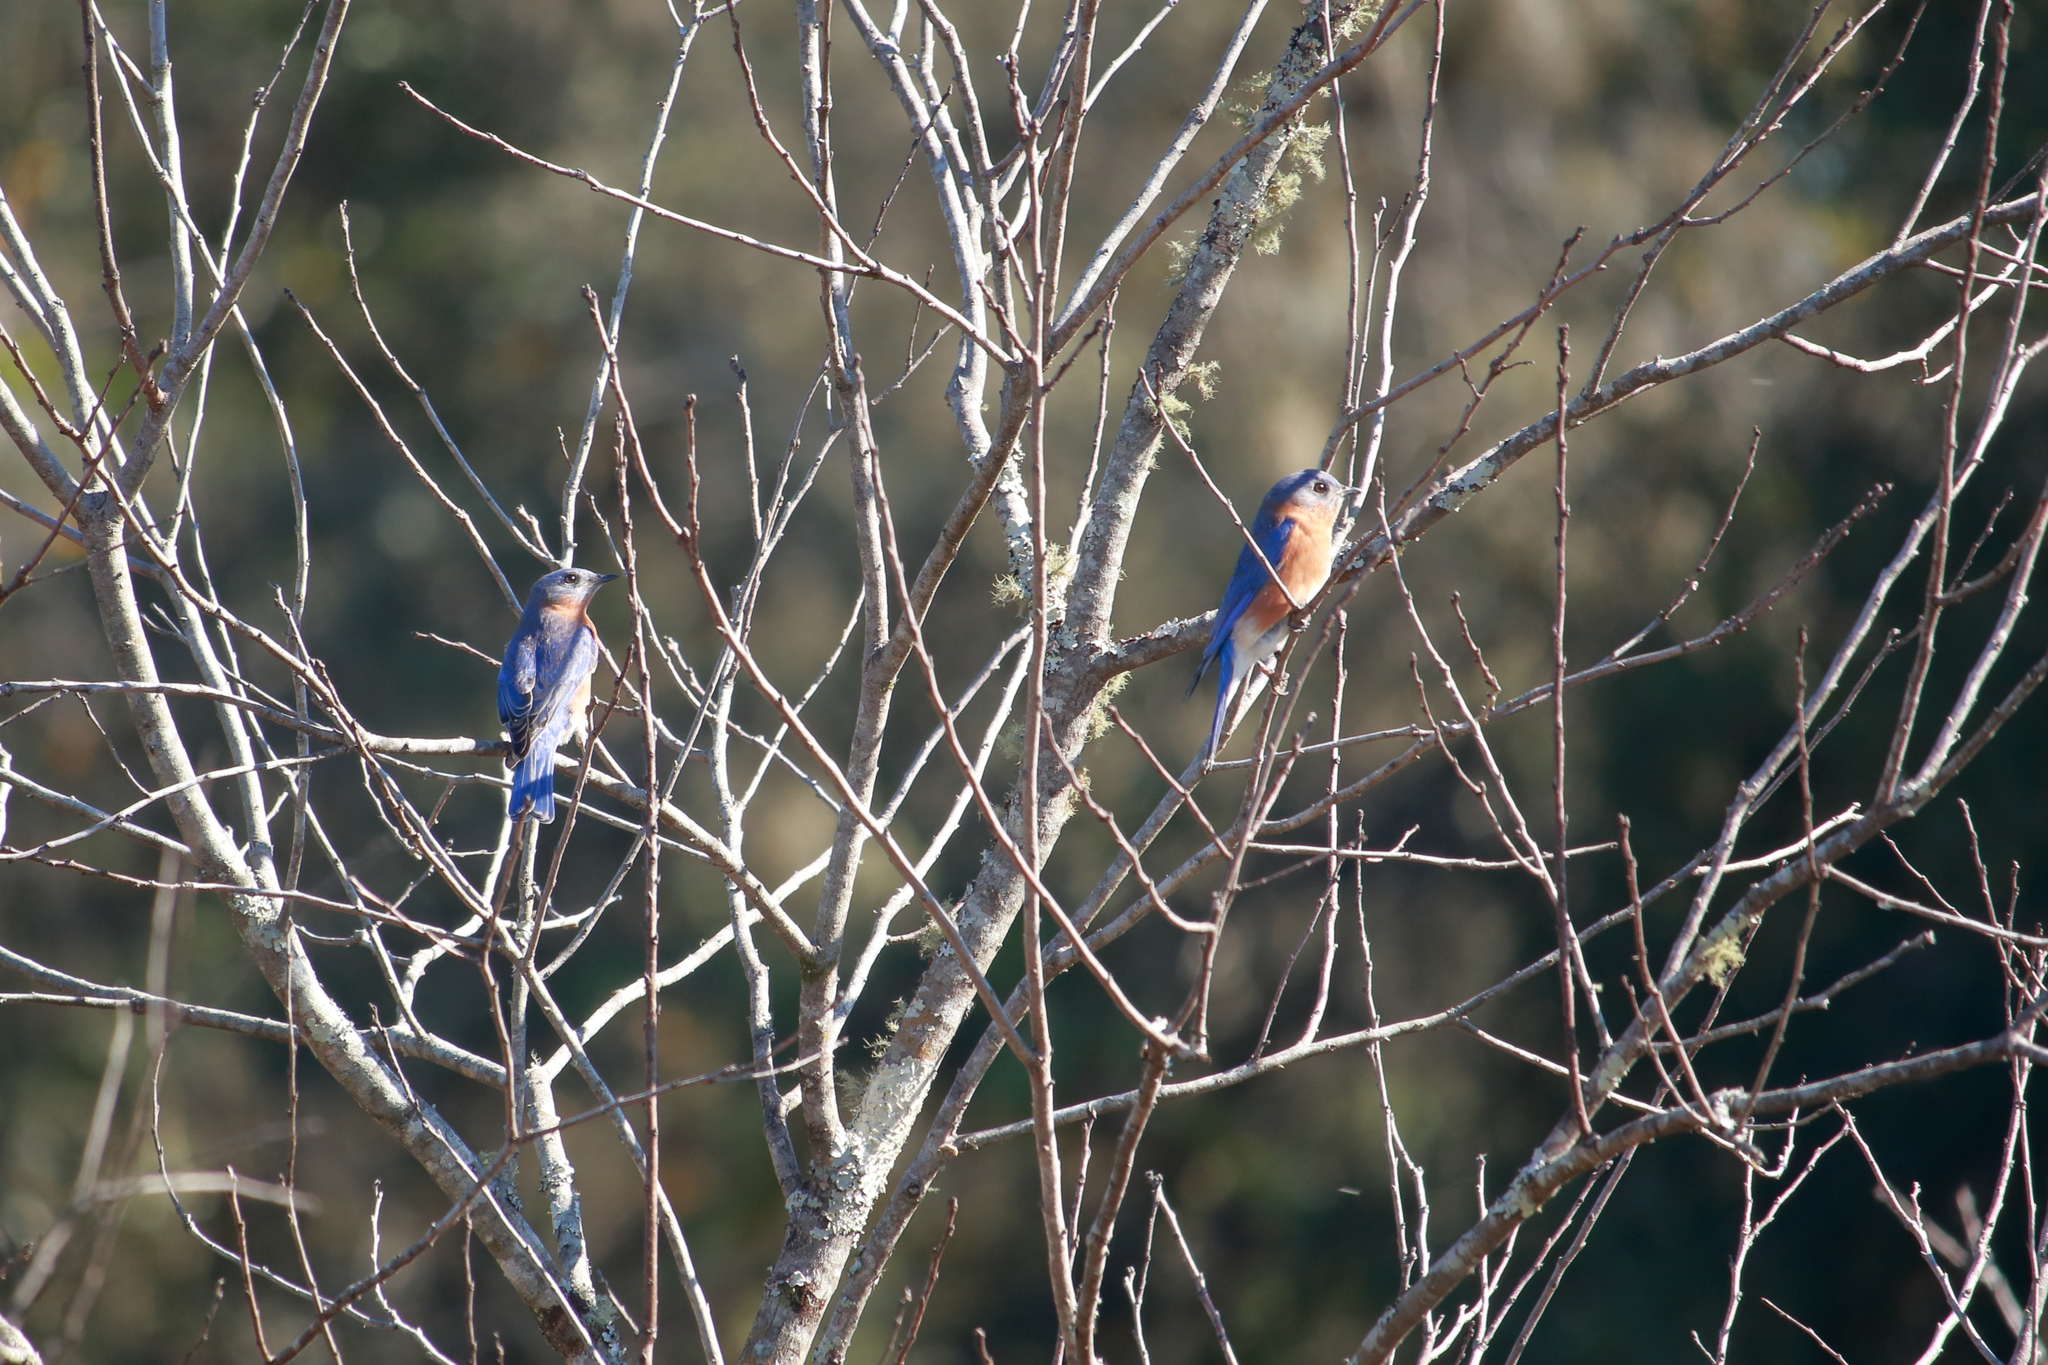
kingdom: Animalia
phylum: Chordata
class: Aves
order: Passeriformes
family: Turdidae
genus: Sialia
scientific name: Sialia sialis
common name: Eastern bluebird
